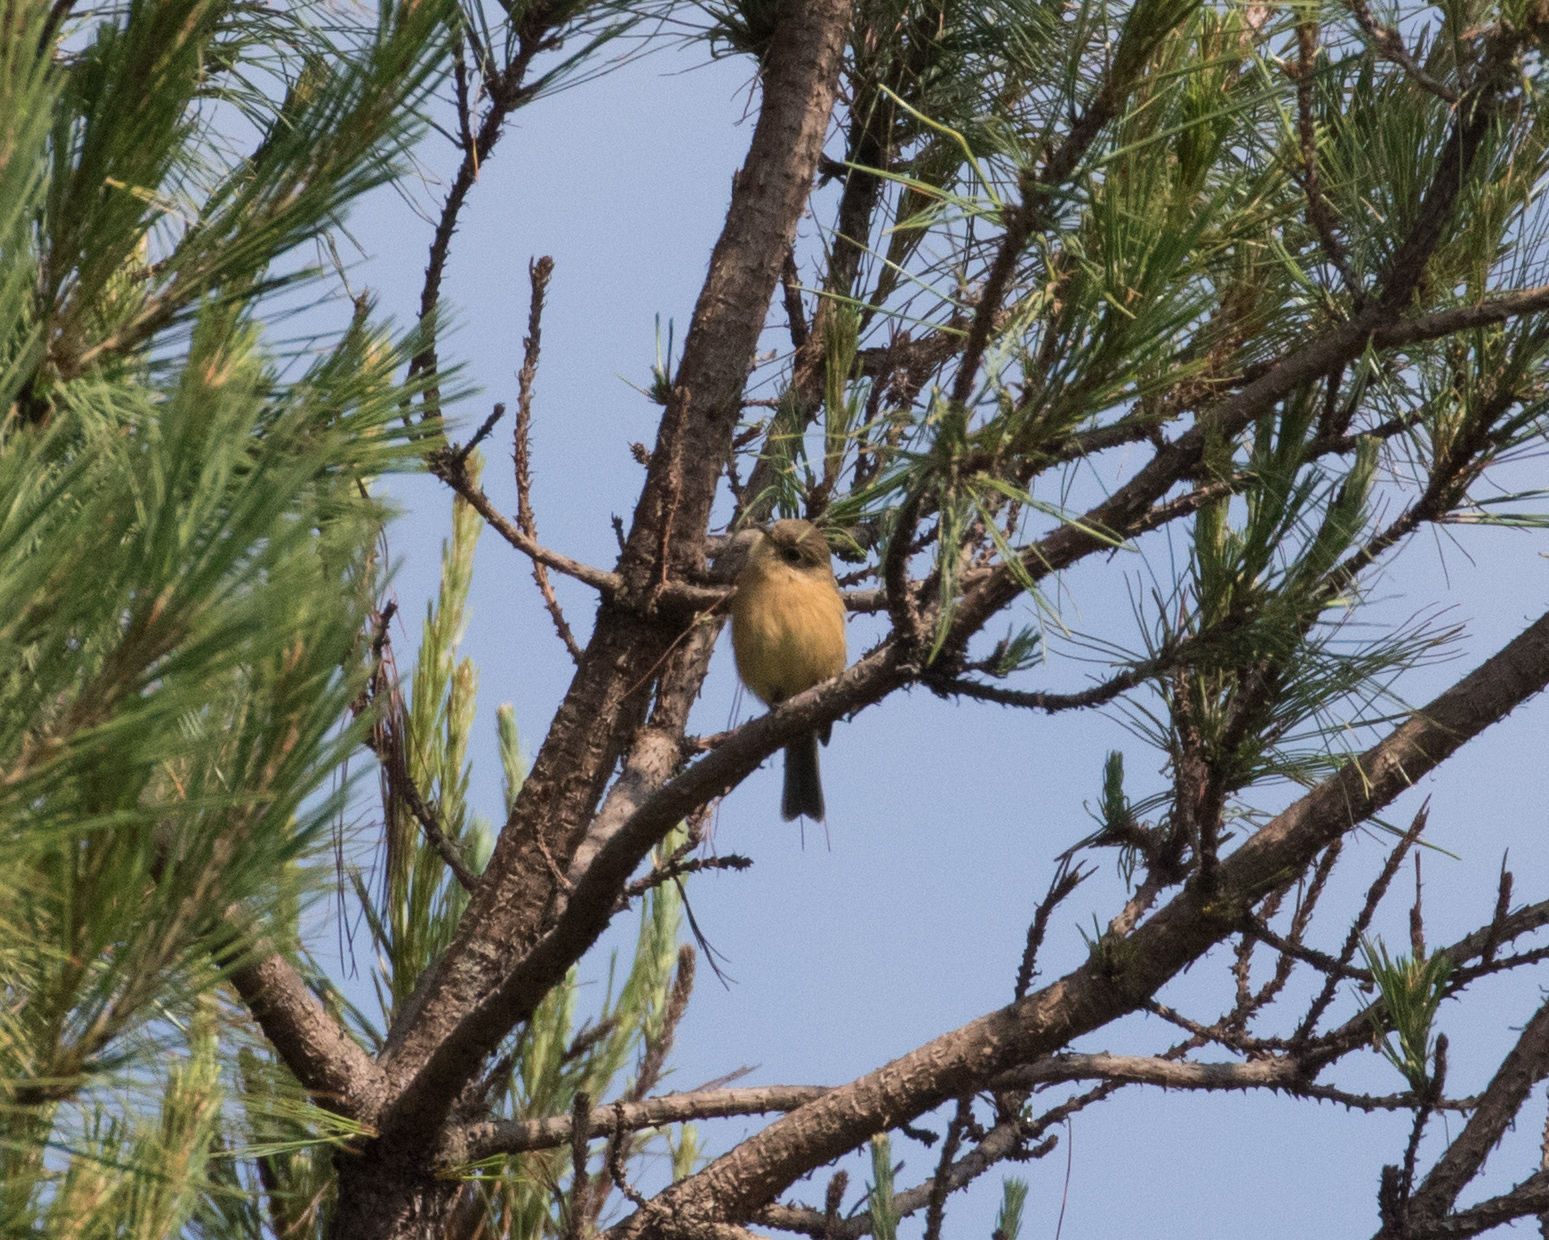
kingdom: Animalia
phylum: Chordata
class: Aves
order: Passeriformes
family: Tyrannidae
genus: Empidonax
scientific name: Empidonax fulvifrons
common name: Buff-breasted flycatcher
